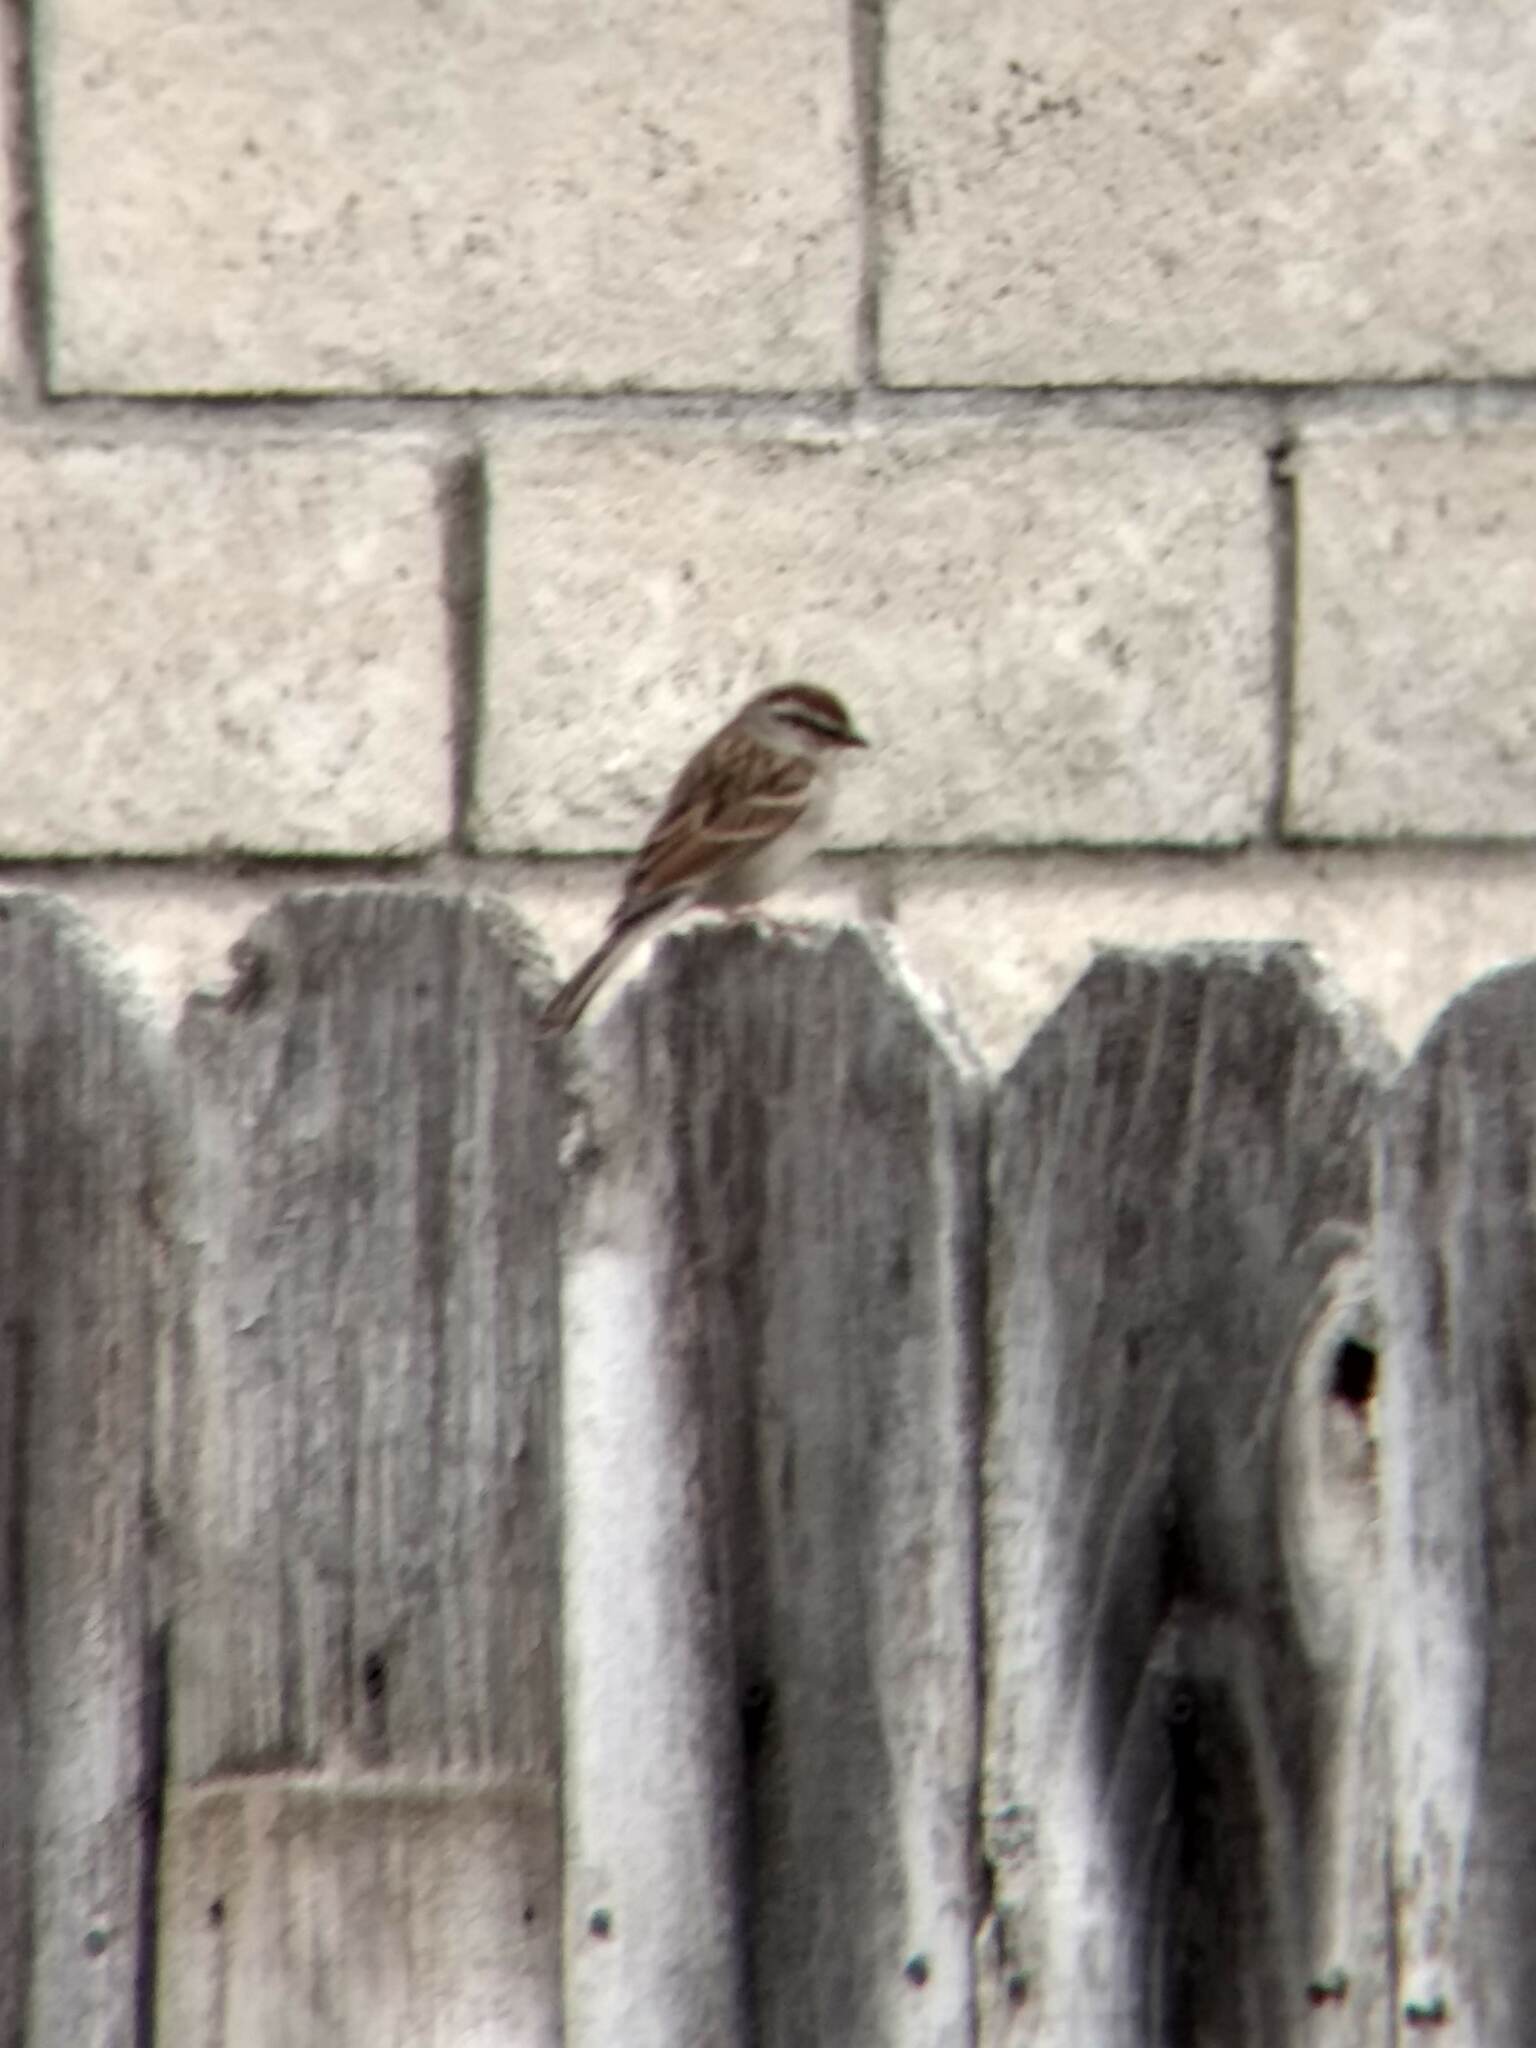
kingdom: Animalia
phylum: Chordata
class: Aves
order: Passeriformes
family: Passerellidae
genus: Spizella
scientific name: Spizella passerina
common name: Chipping sparrow
